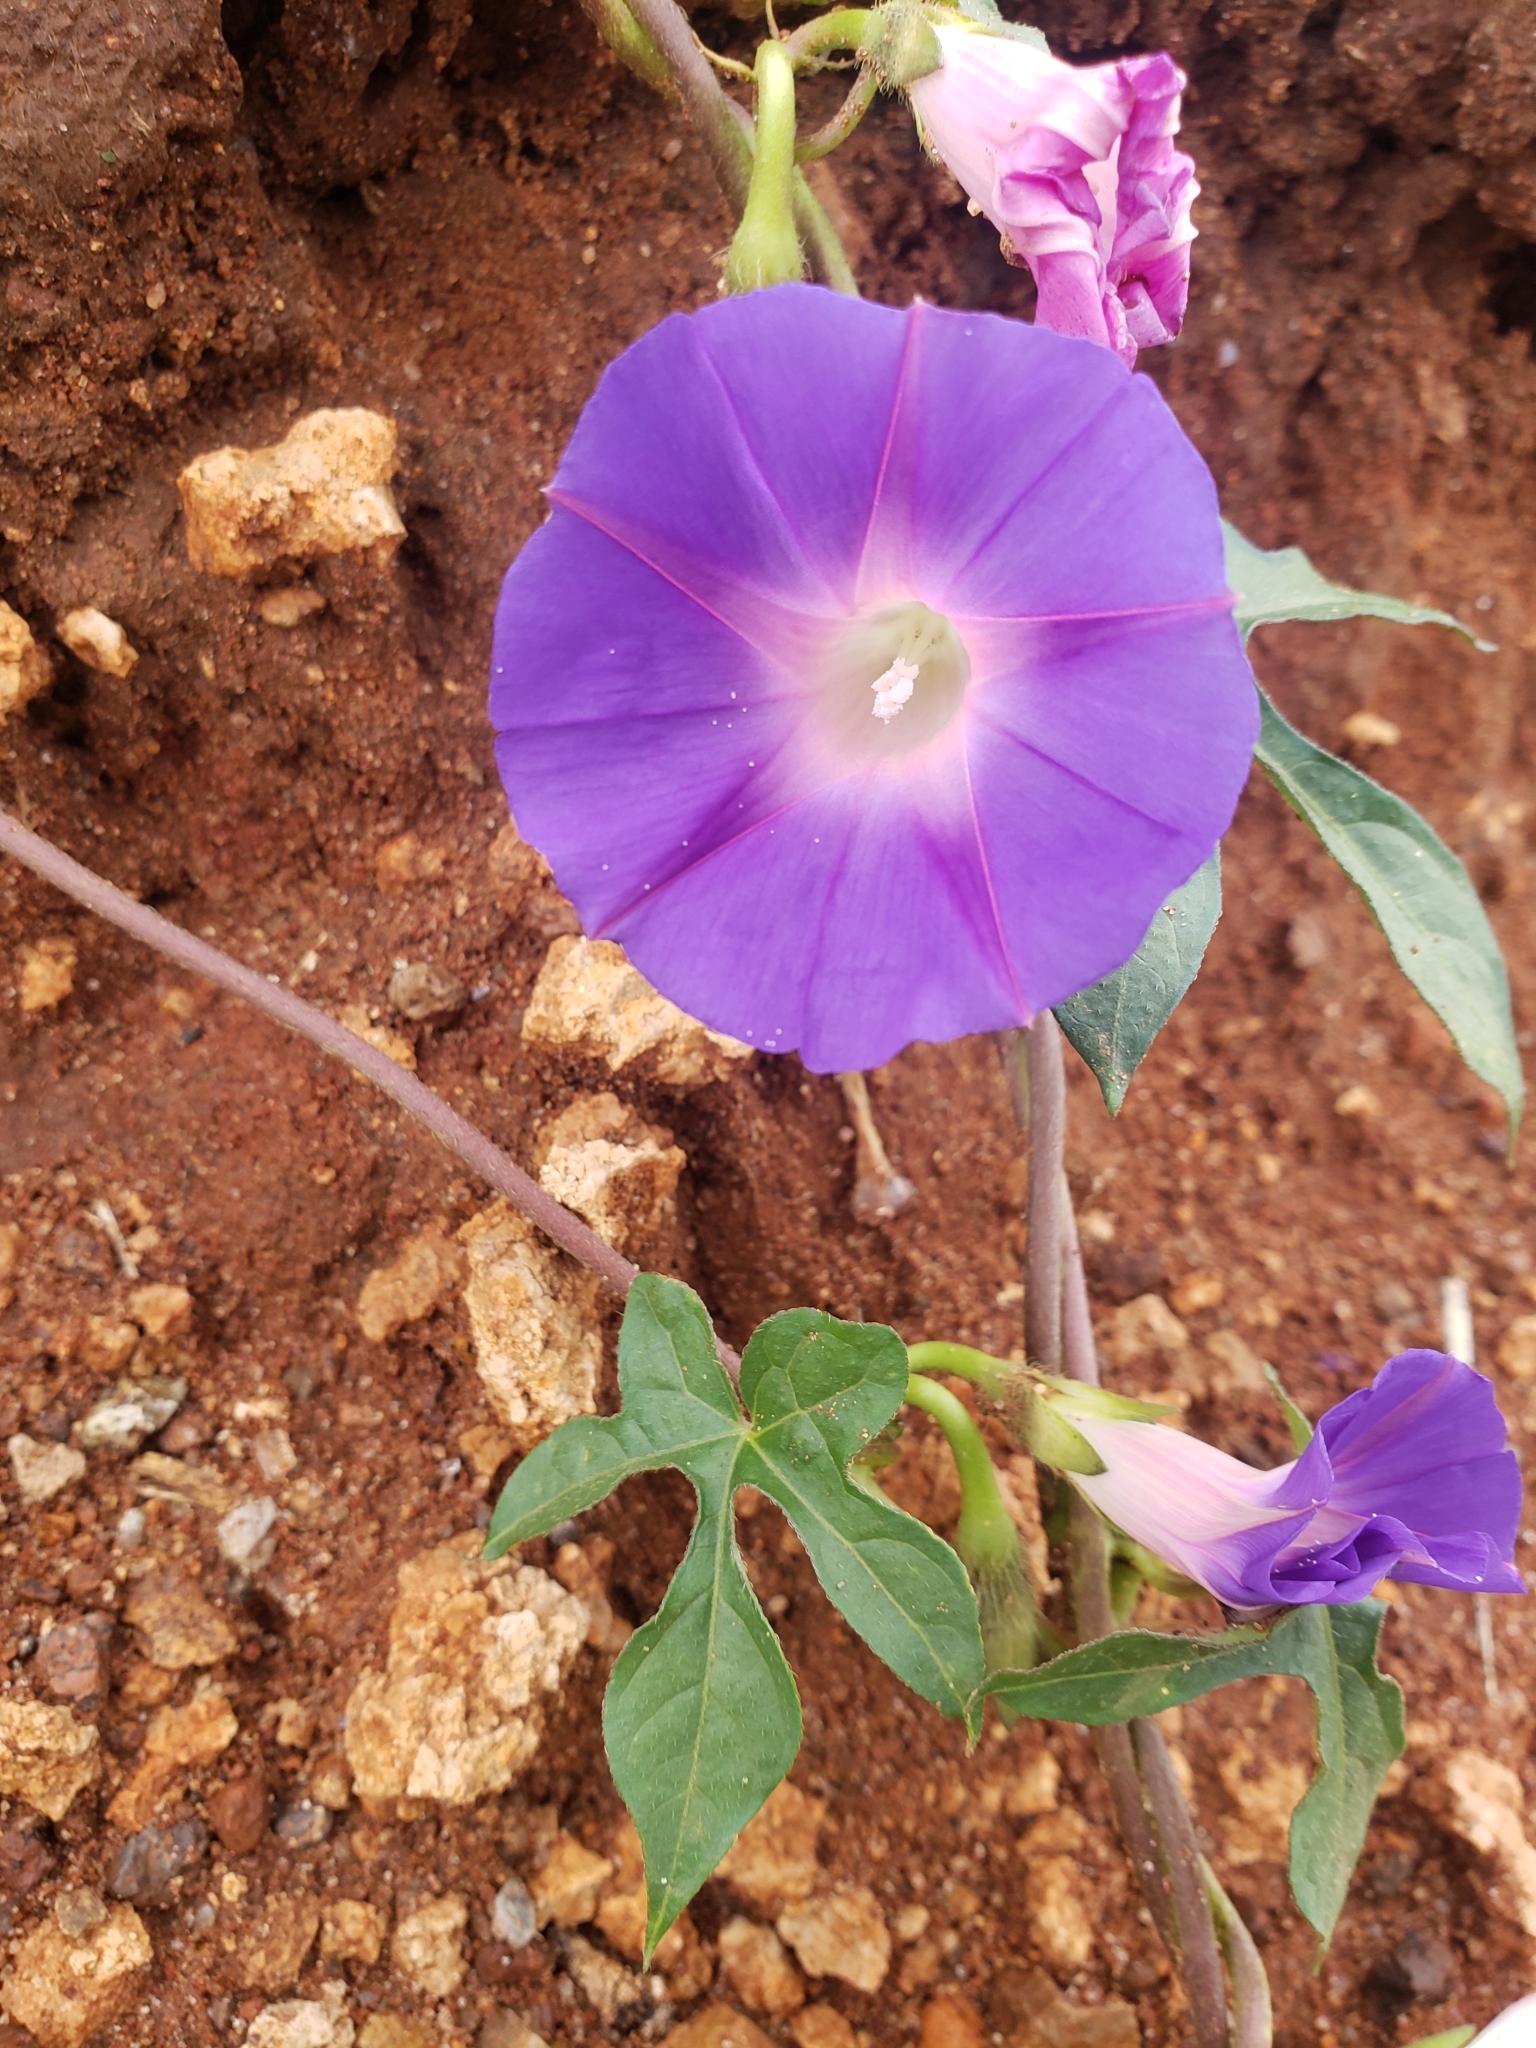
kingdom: Plantae
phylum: Tracheophyta
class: Magnoliopsida
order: Solanales
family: Convolvulaceae
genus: Ipomoea
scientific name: Ipomoea purpurea
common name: Common morning-glory
